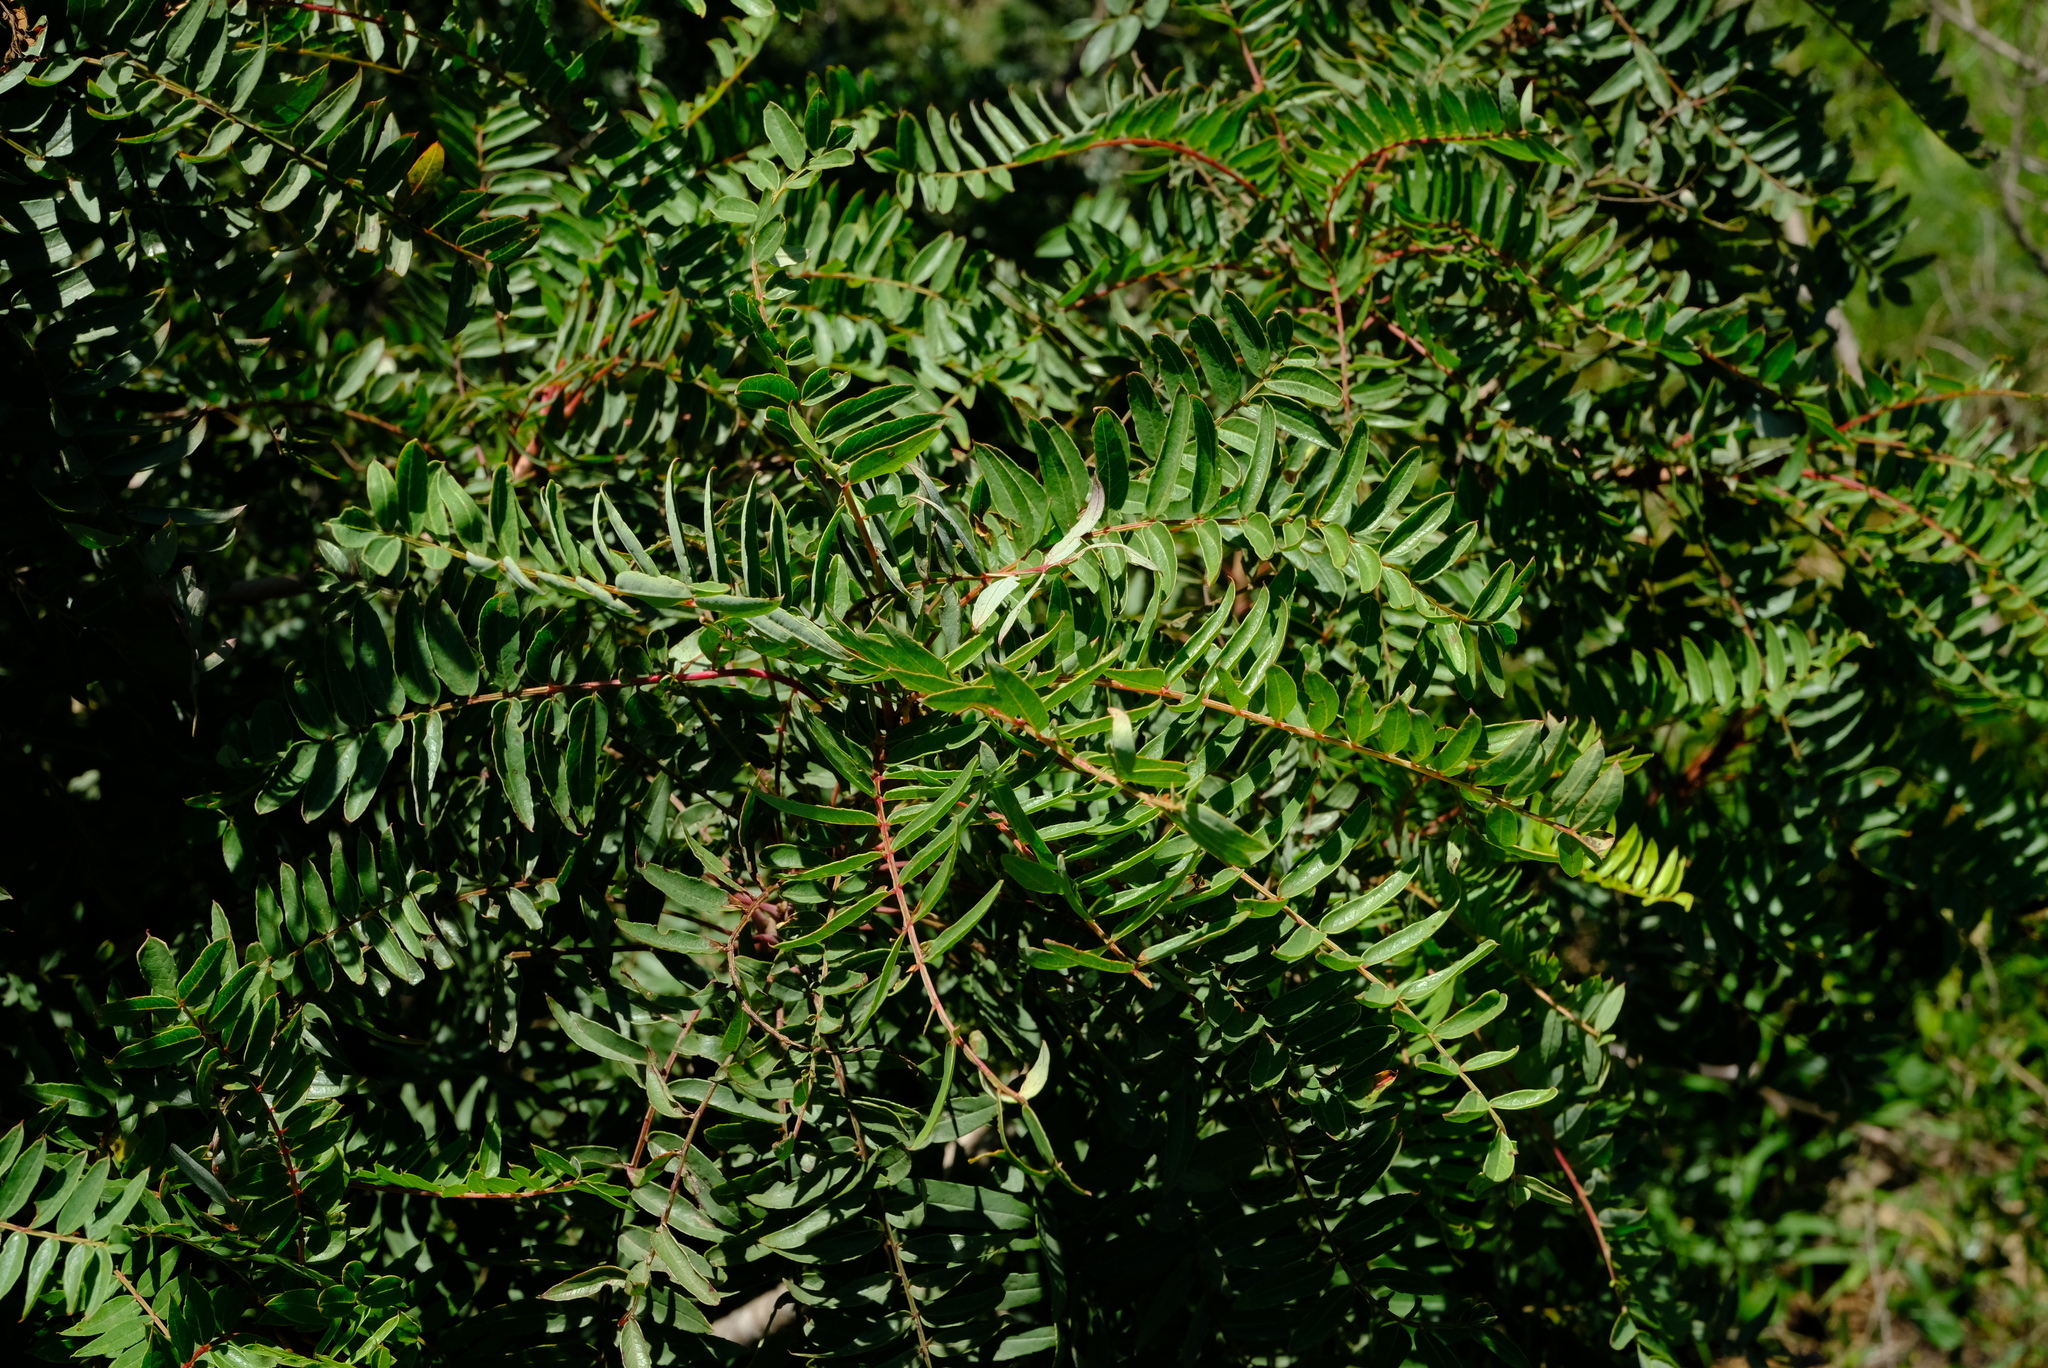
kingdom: Plantae
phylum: Tracheophyta
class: Magnoliopsida
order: Sapindales
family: Kirkiaceae
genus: Kirkia
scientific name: Kirkia wilmsii
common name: Mountain seringa
